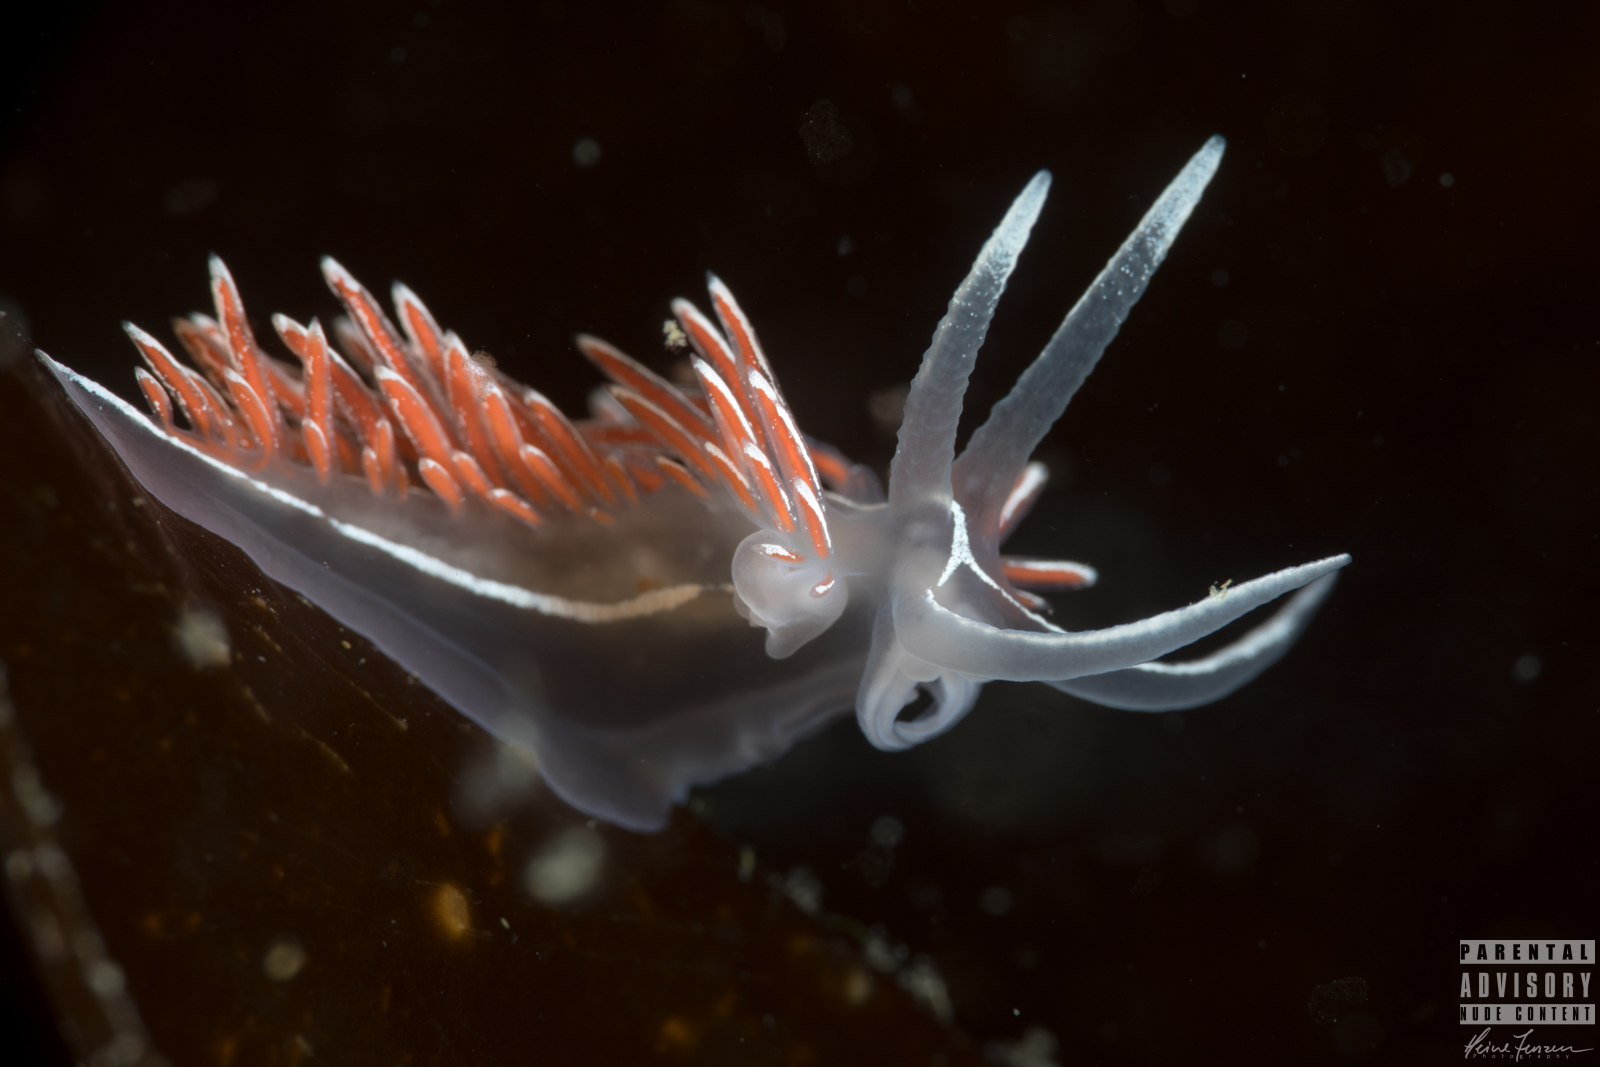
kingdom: Animalia
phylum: Mollusca
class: Gastropoda
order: Nudibranchia
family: Coryphellidae
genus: Coryphella
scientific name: Coryphella lineata
